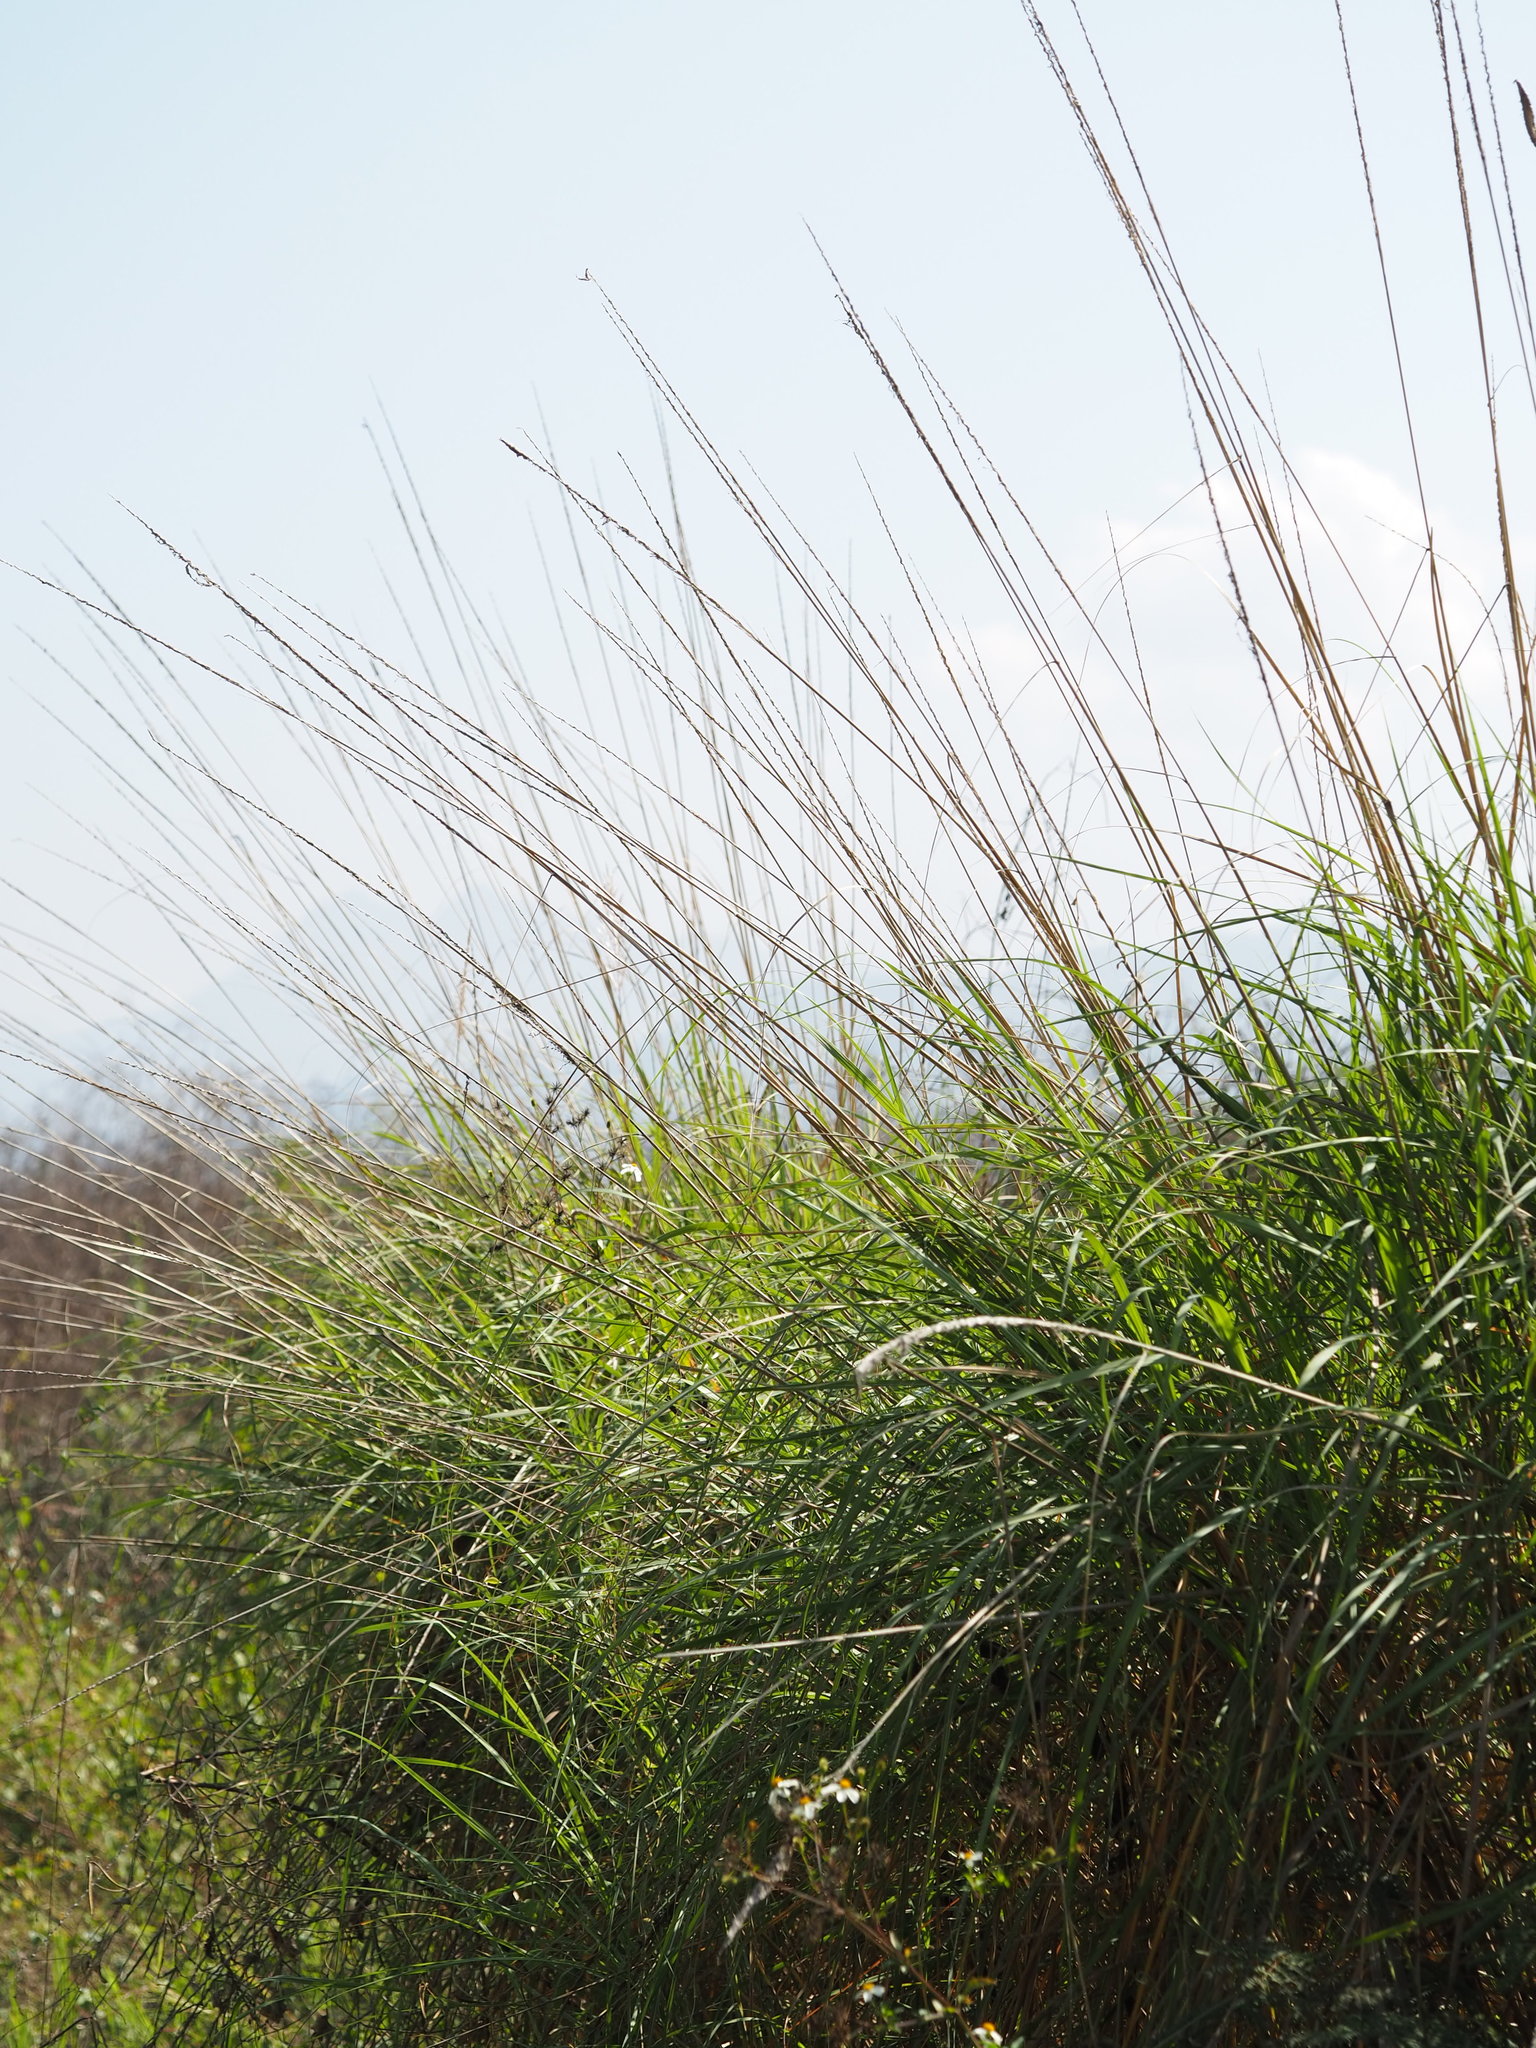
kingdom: Plantae
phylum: Tracheophyta
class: Liliopsida
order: Poales
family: Poaceae
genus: Saccharum
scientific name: Saccharum spontaneum
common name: Wild sugarcane
